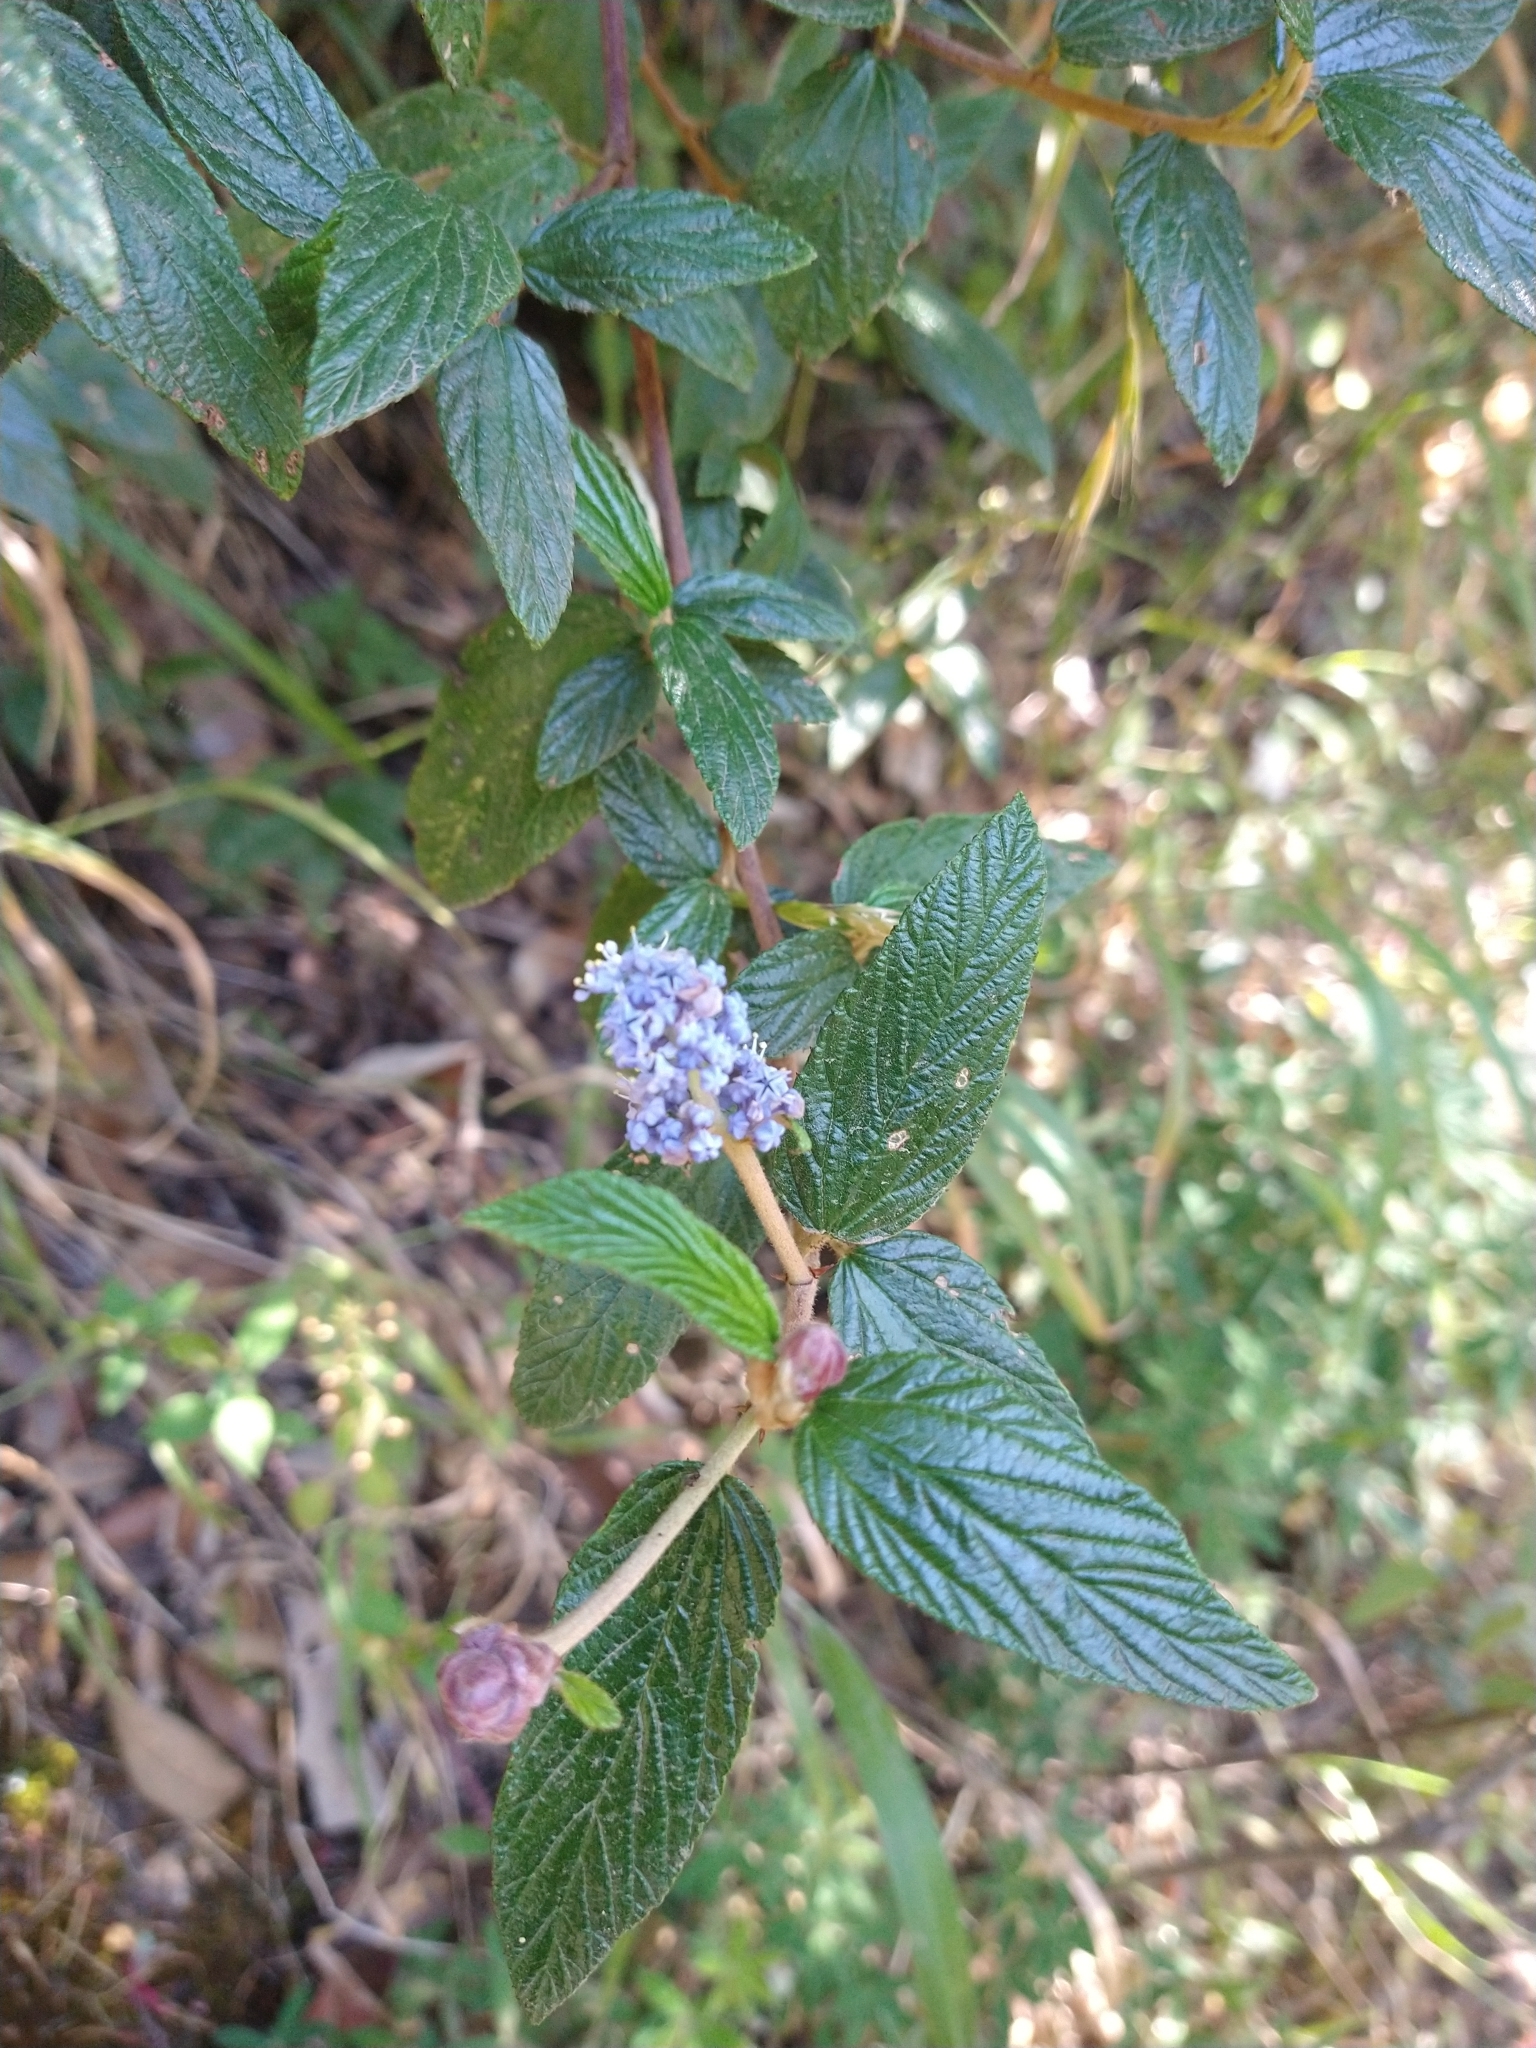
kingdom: Plantae
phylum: Tracheophyta
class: Magnoliopsida
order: Rosales
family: Rhamnaceae
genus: Ceanothus
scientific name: Ceanothus caeruleus
